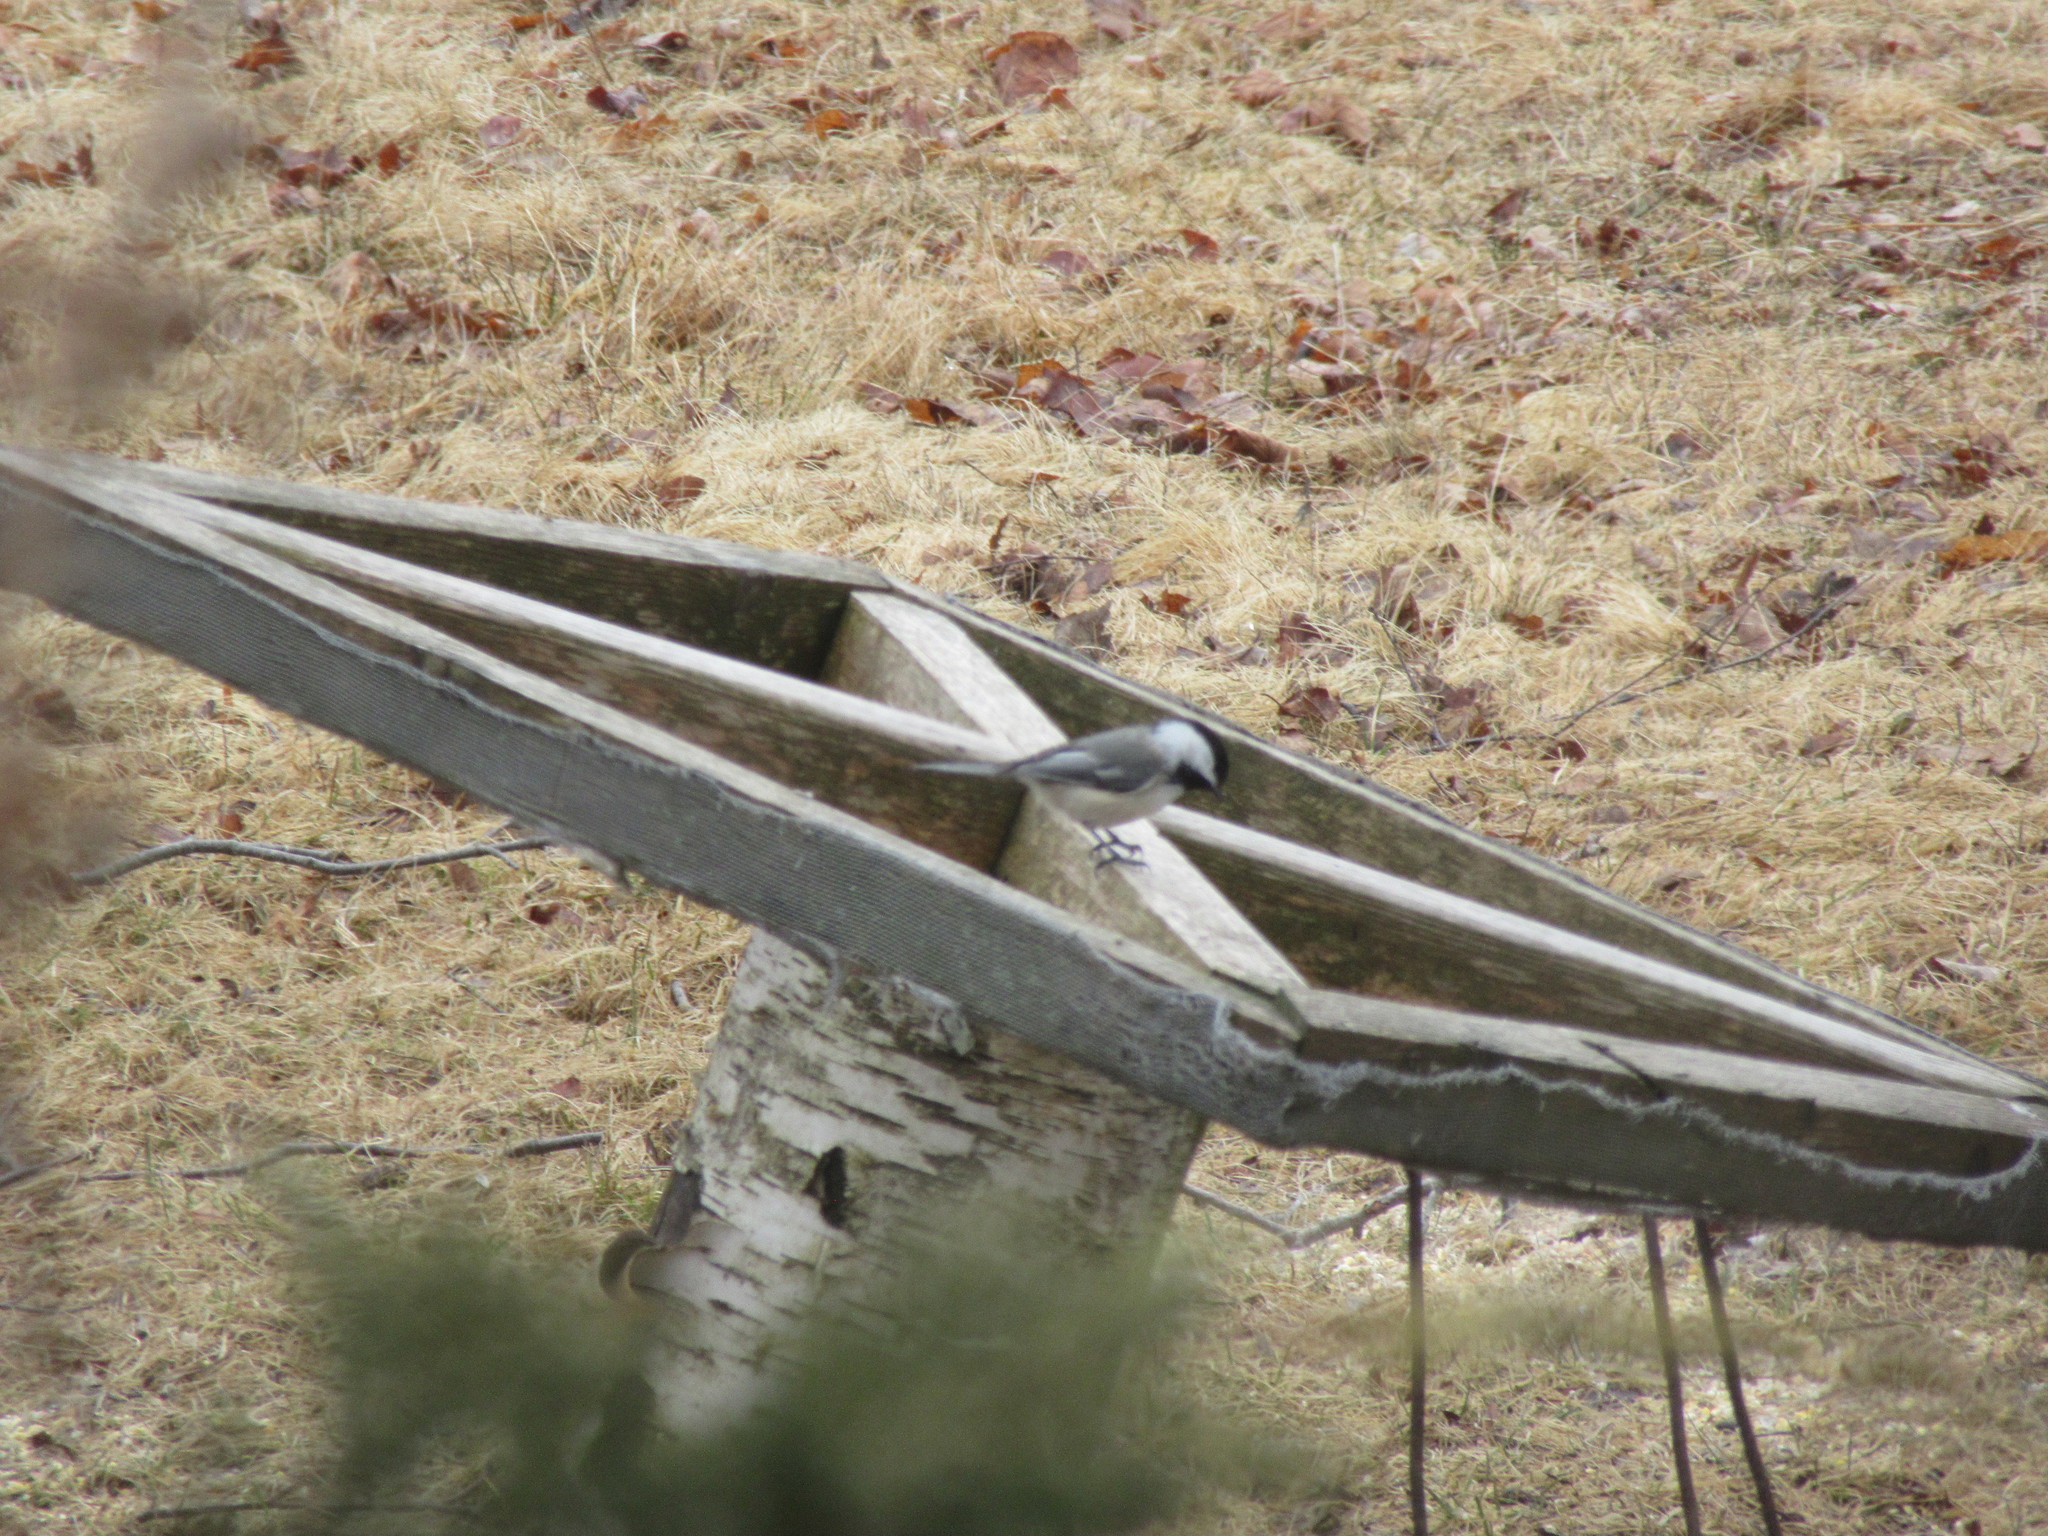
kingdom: Animalia
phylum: Chordata
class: Aves
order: Passeriformes
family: Paridae
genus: Poecile
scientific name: Poecile atricapillus
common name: Black-capped chickadee
